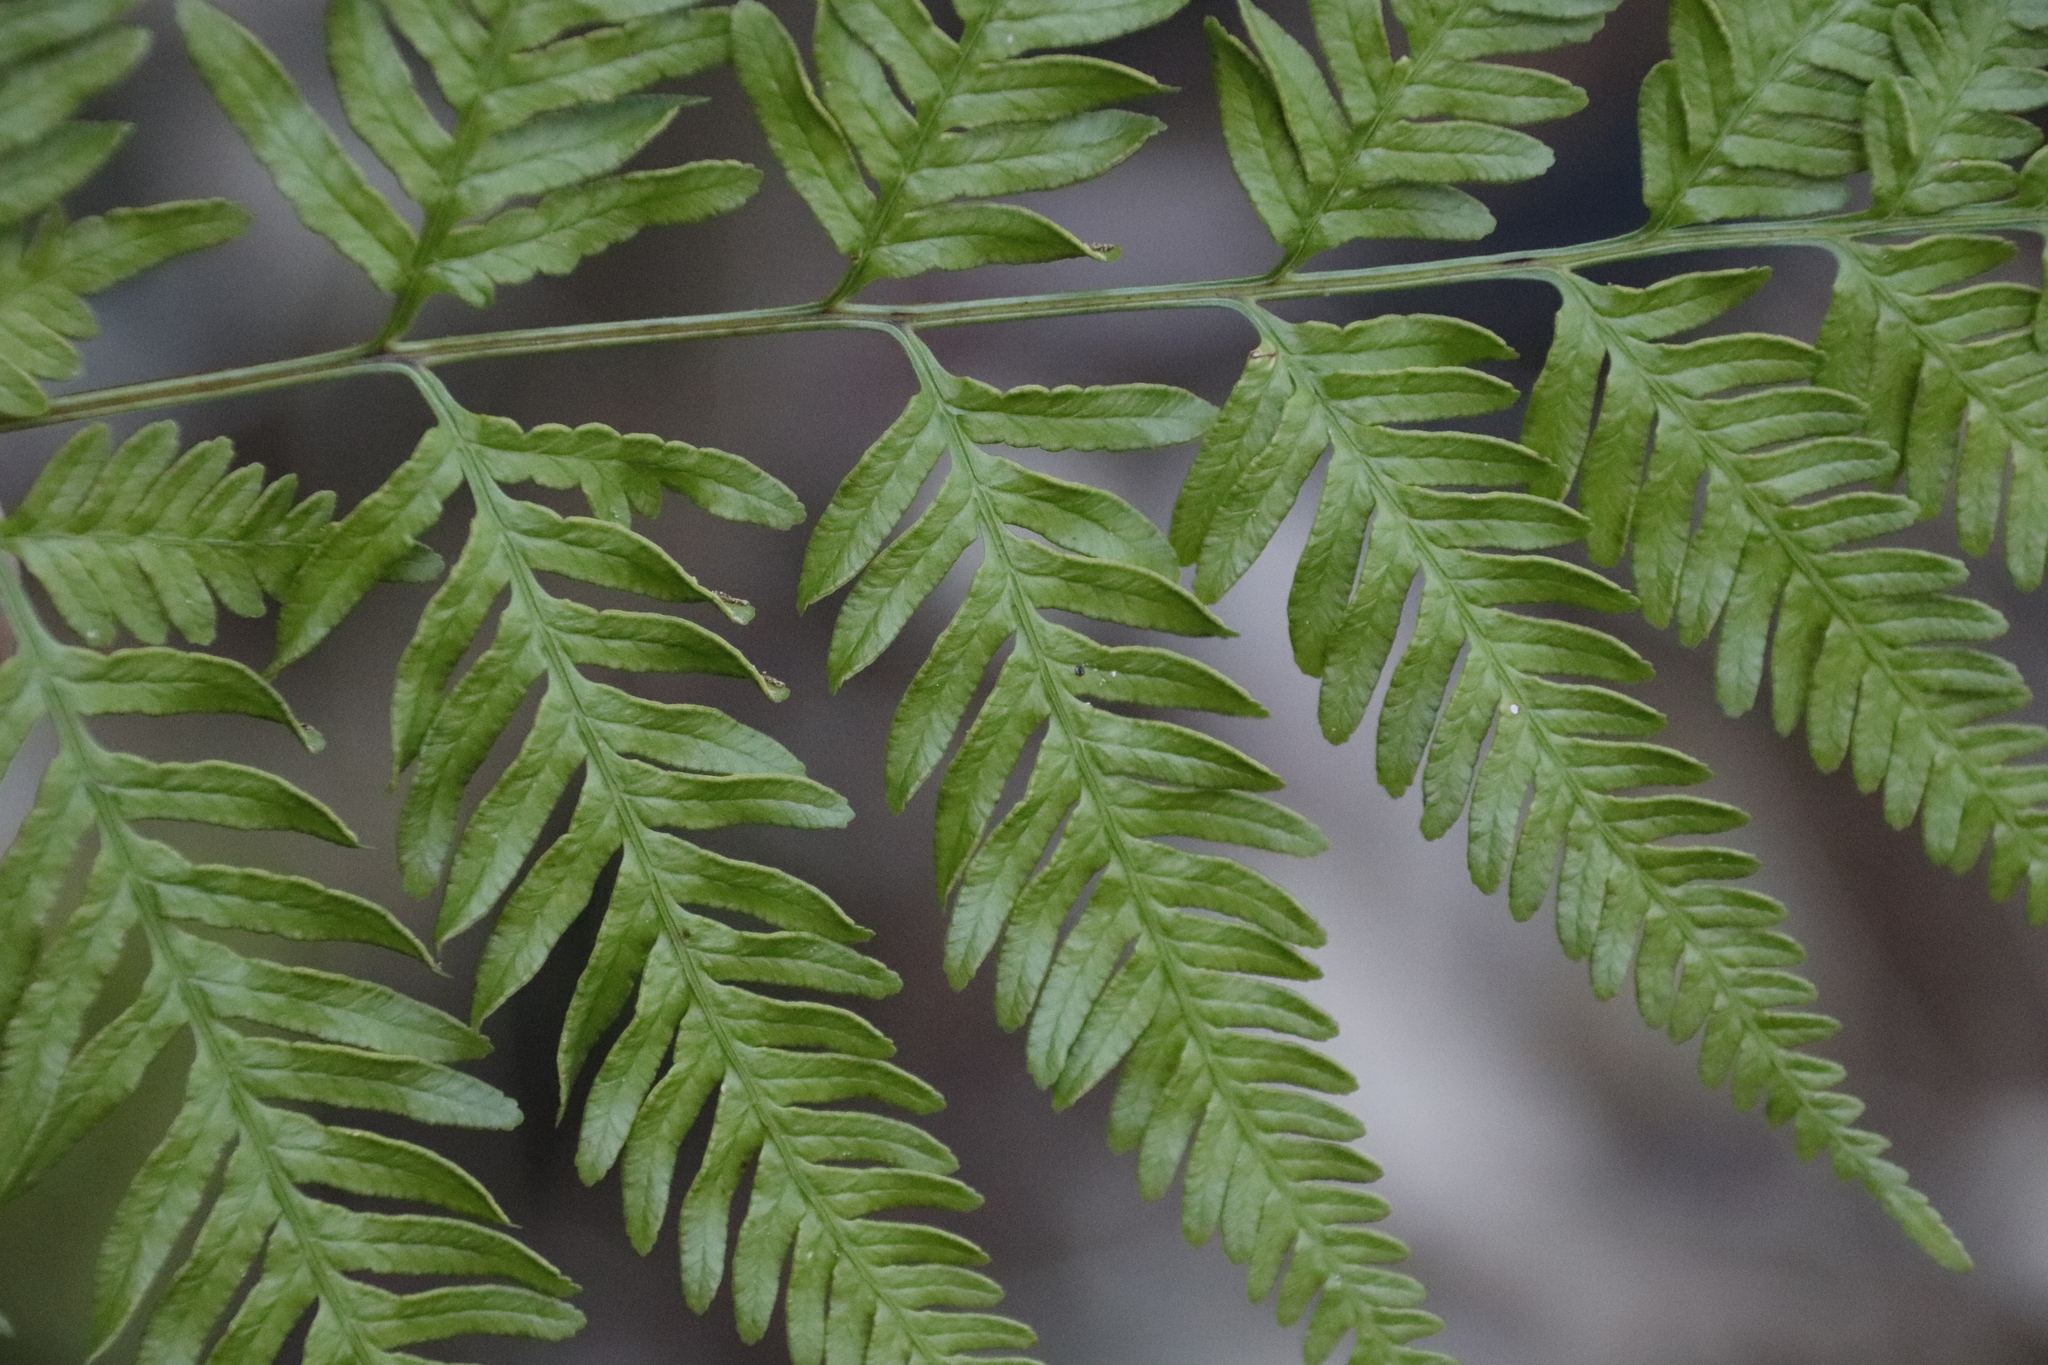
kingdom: Plantae
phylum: Tracheophyta
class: Polypodiopsida
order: Polypodiales
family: Pteridaceae
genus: Pteris
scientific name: Pteris tremula
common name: Australian brake
